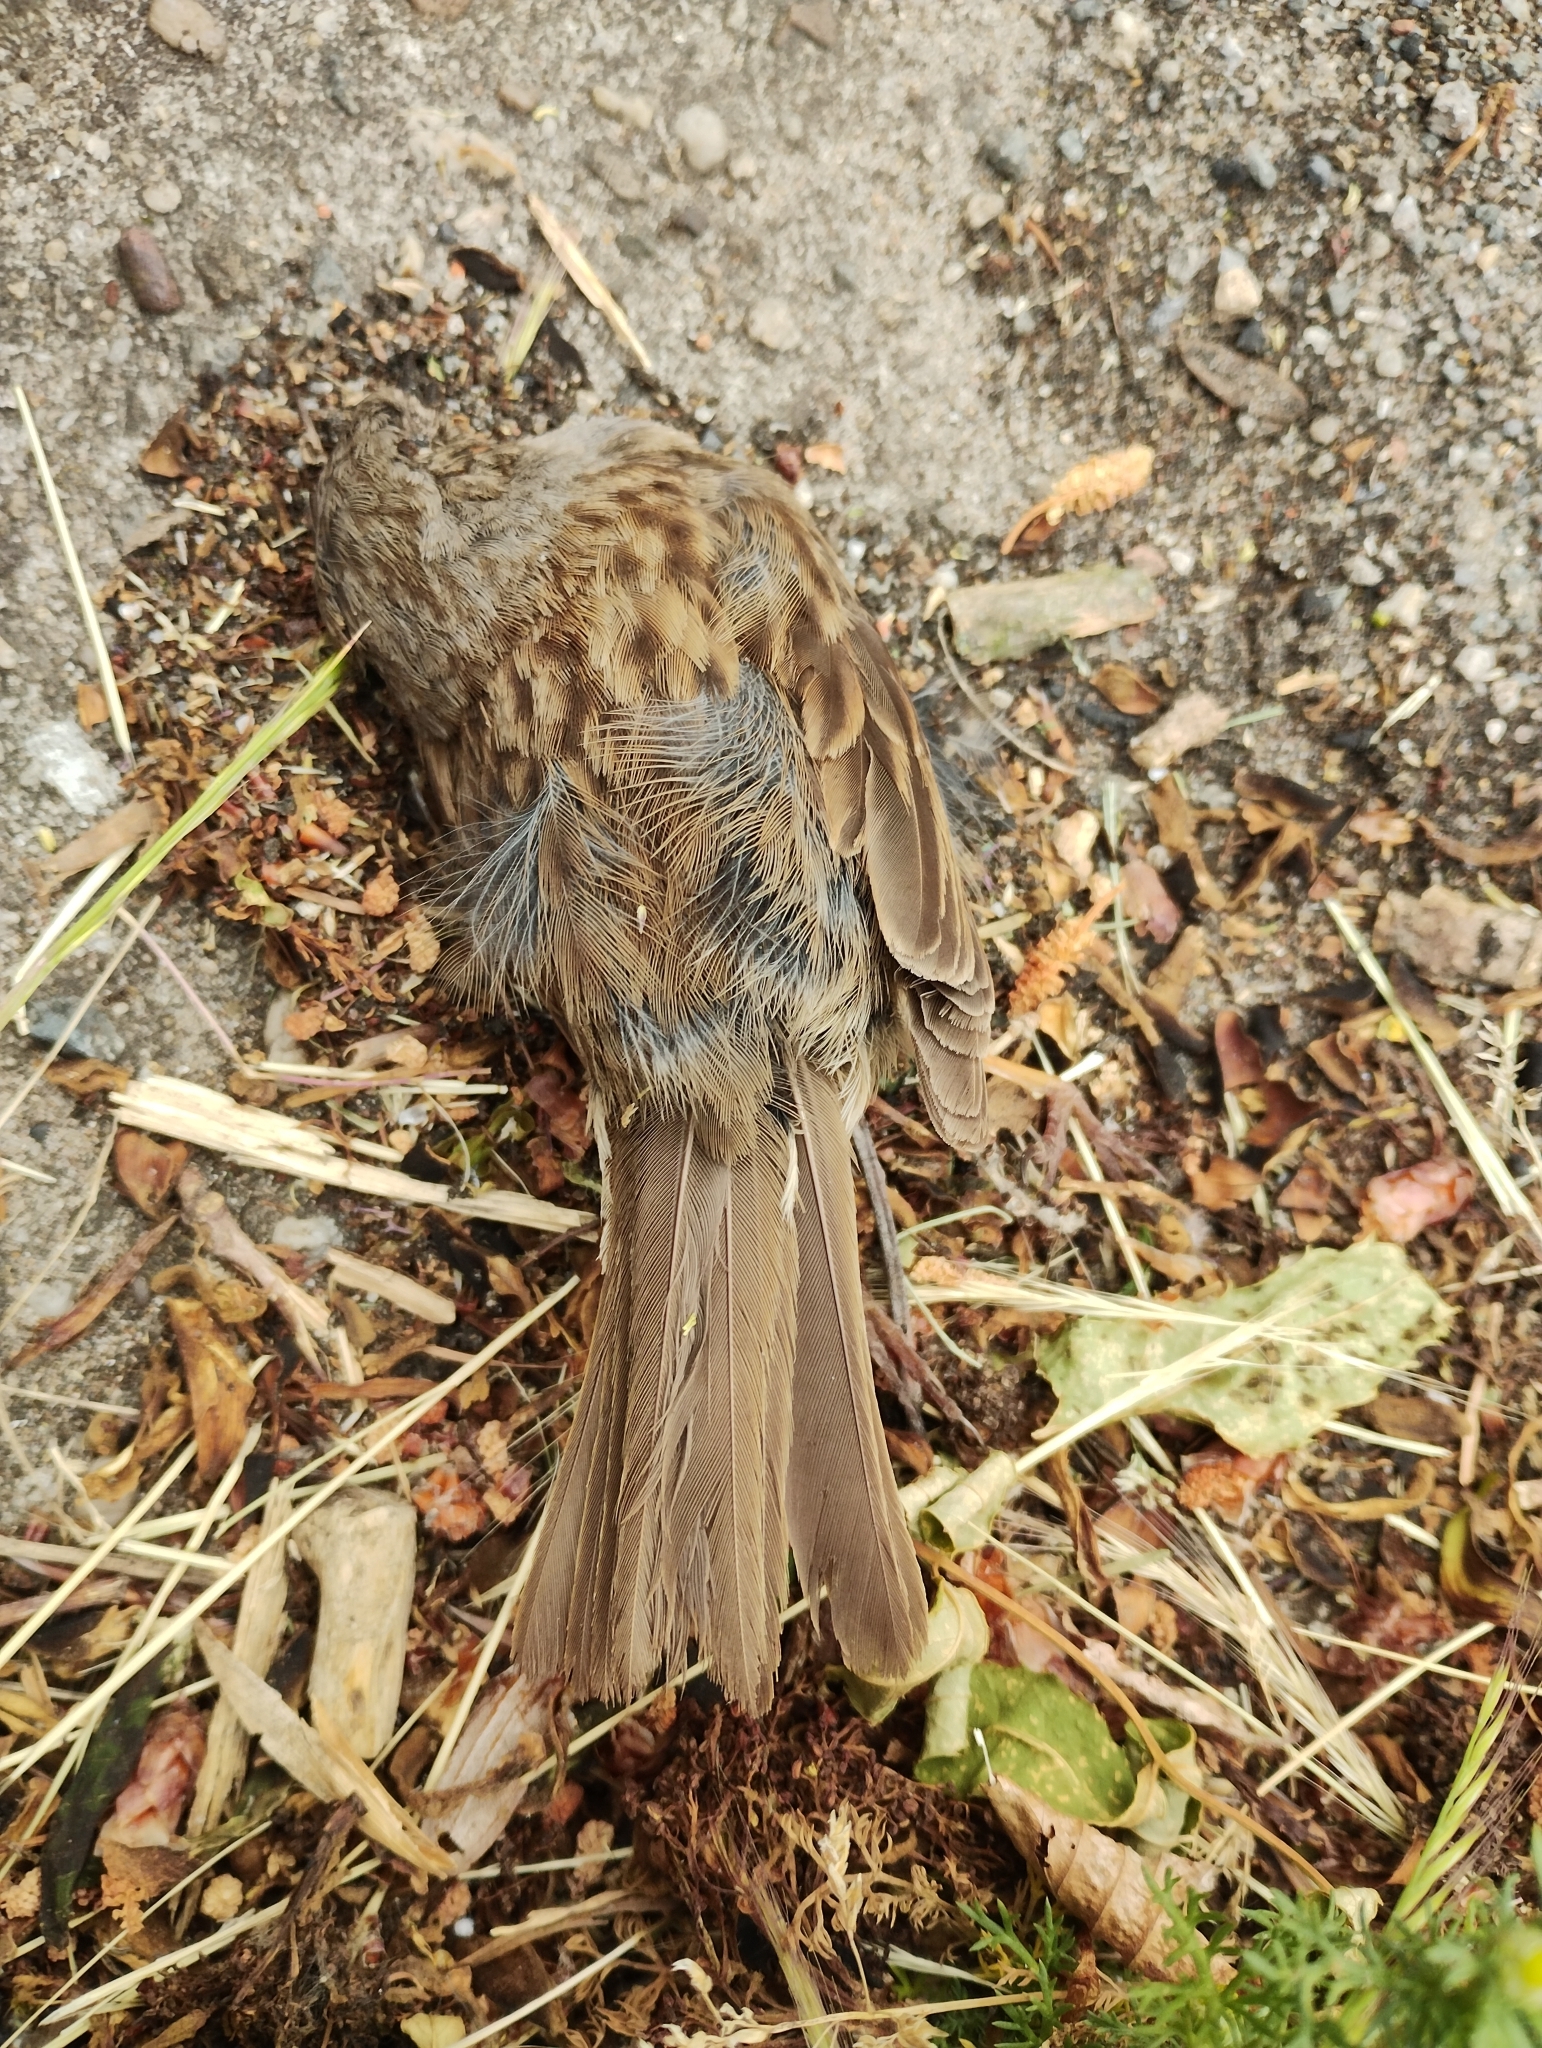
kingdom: Animalia
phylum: Chordata
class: Aves
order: Passeriformes
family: Prunellidae
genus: Prunella
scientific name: Prunella modularis
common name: Dunnock
